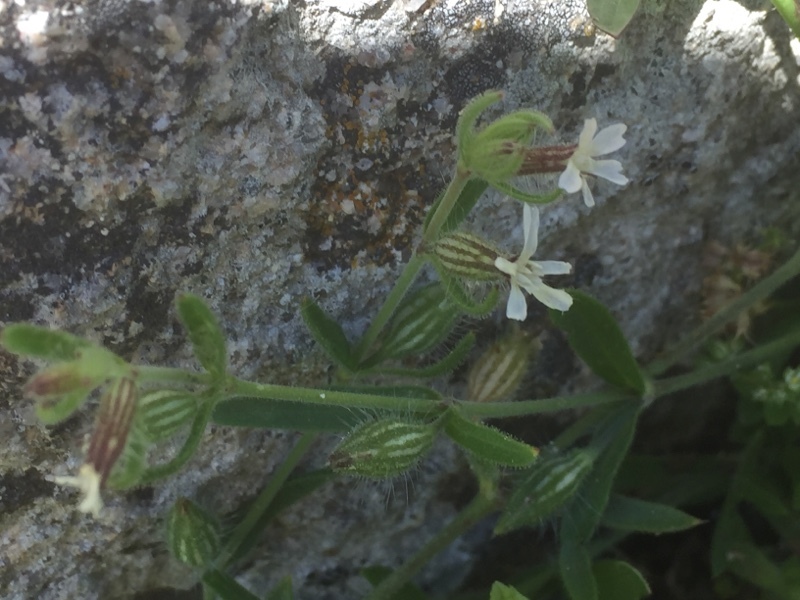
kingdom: Plantae
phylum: Tracheophyta
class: Magnoliopsida
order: Caryophyllales
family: Caryophyllaceae
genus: Silene
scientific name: Silene gallica
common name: Small-flowered catchfly
